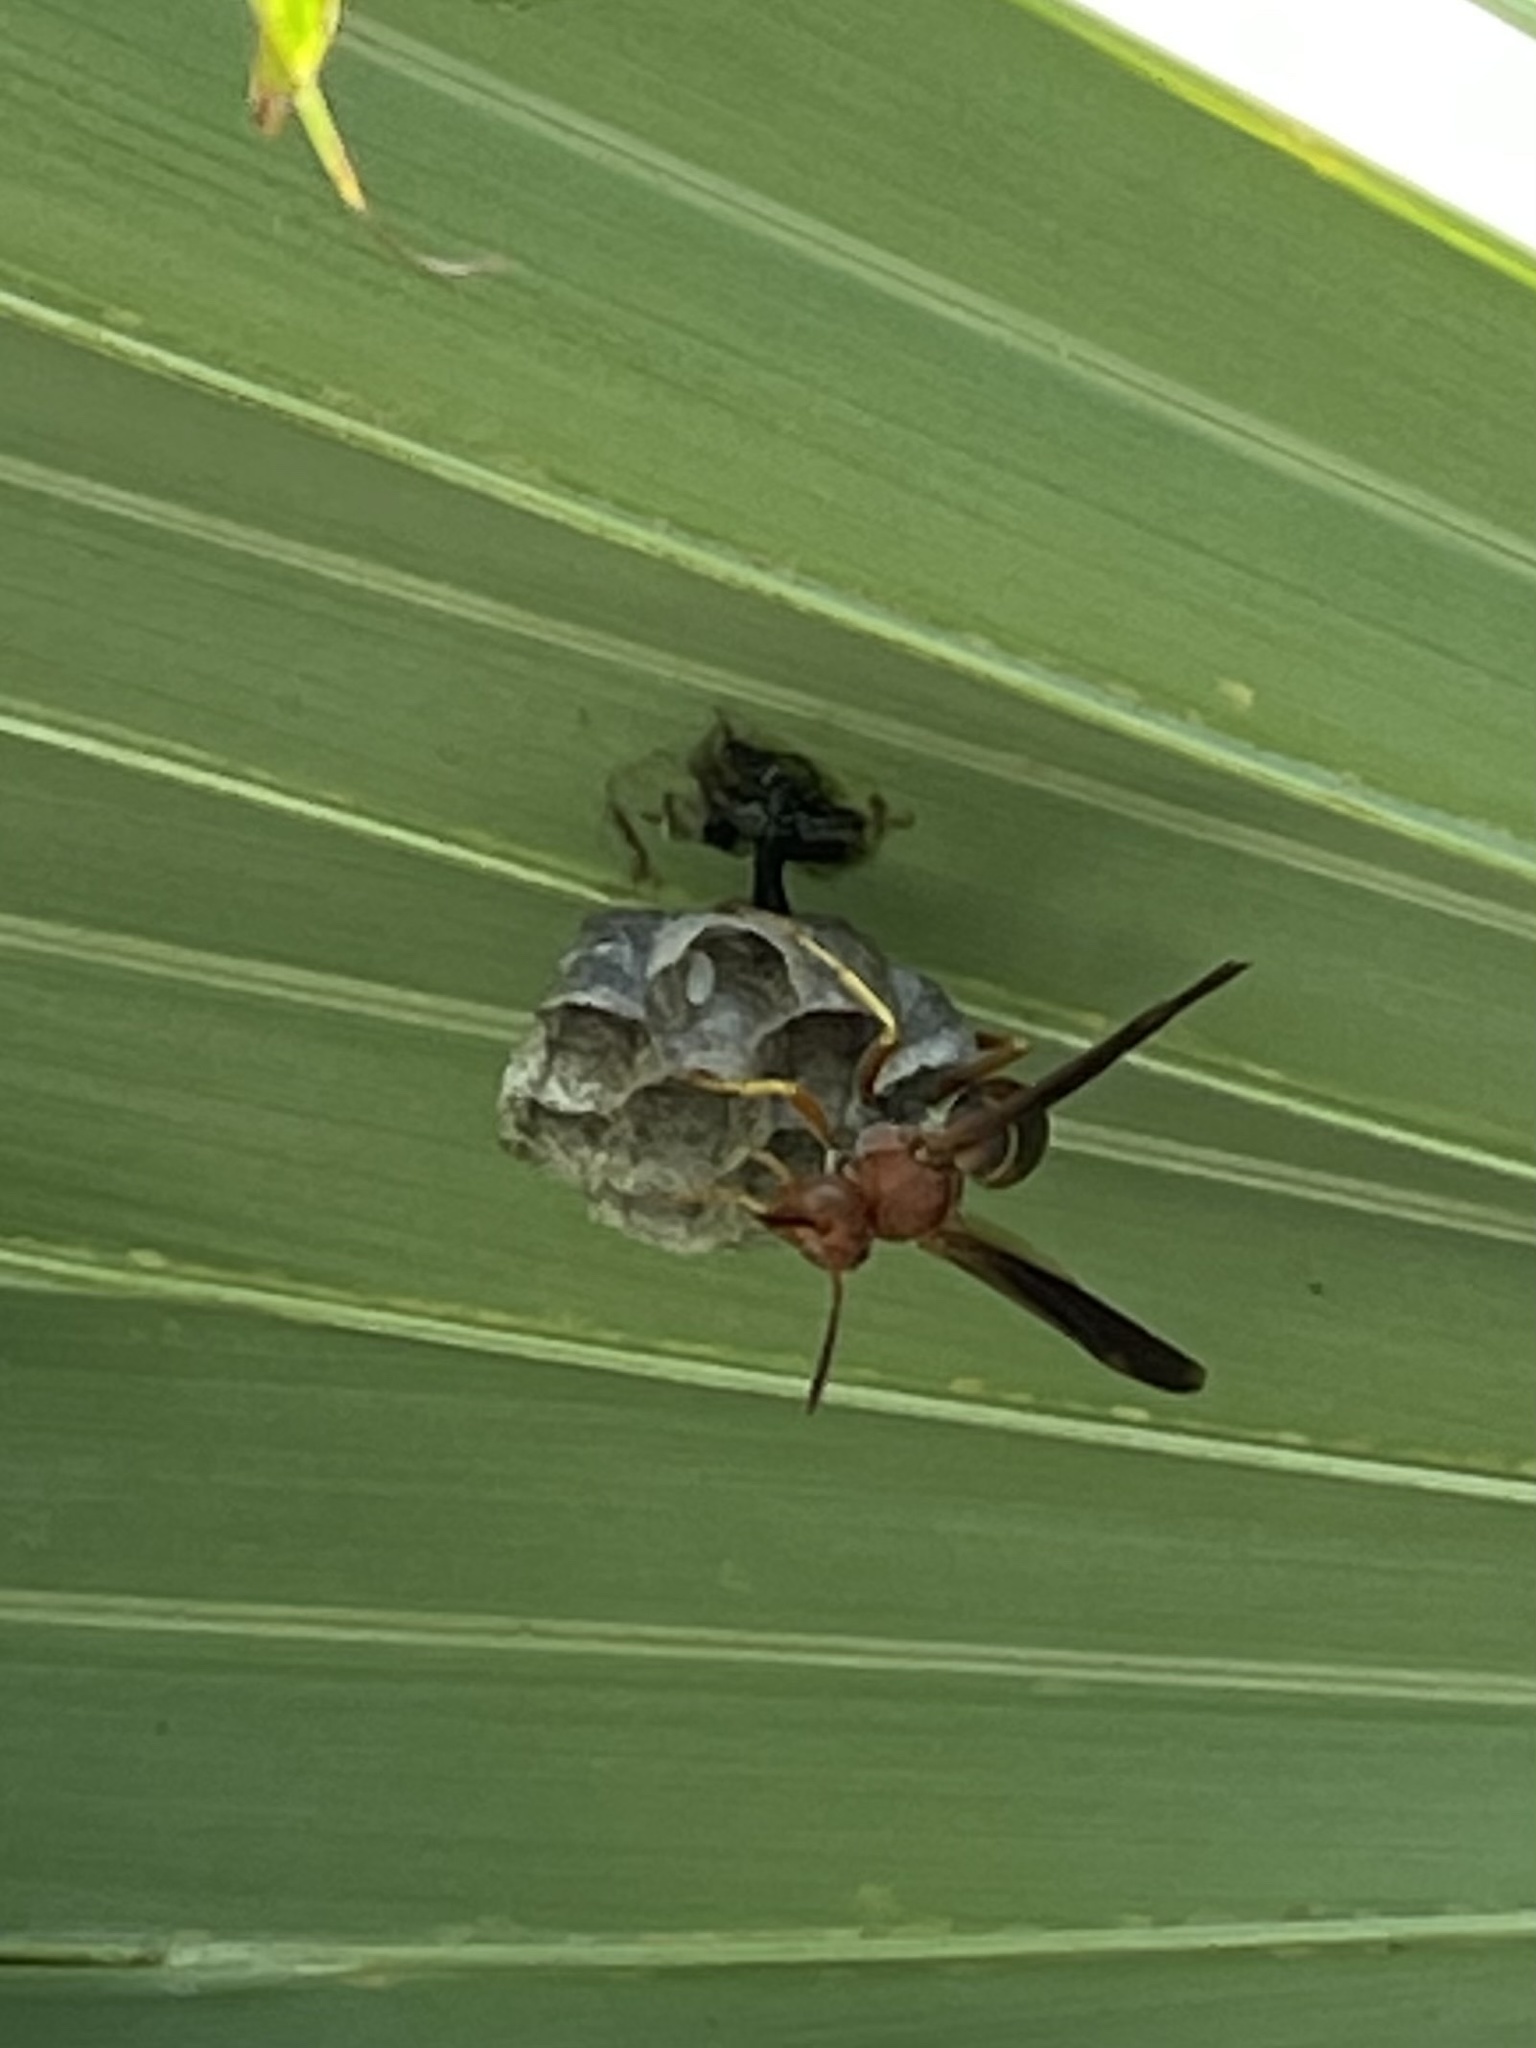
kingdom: Animalia
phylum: Arthropoda
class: Insecta
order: Hymenoptera
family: Eumenidae
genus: Polistes
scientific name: Polistes fuscatus
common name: Dark paper wasp
